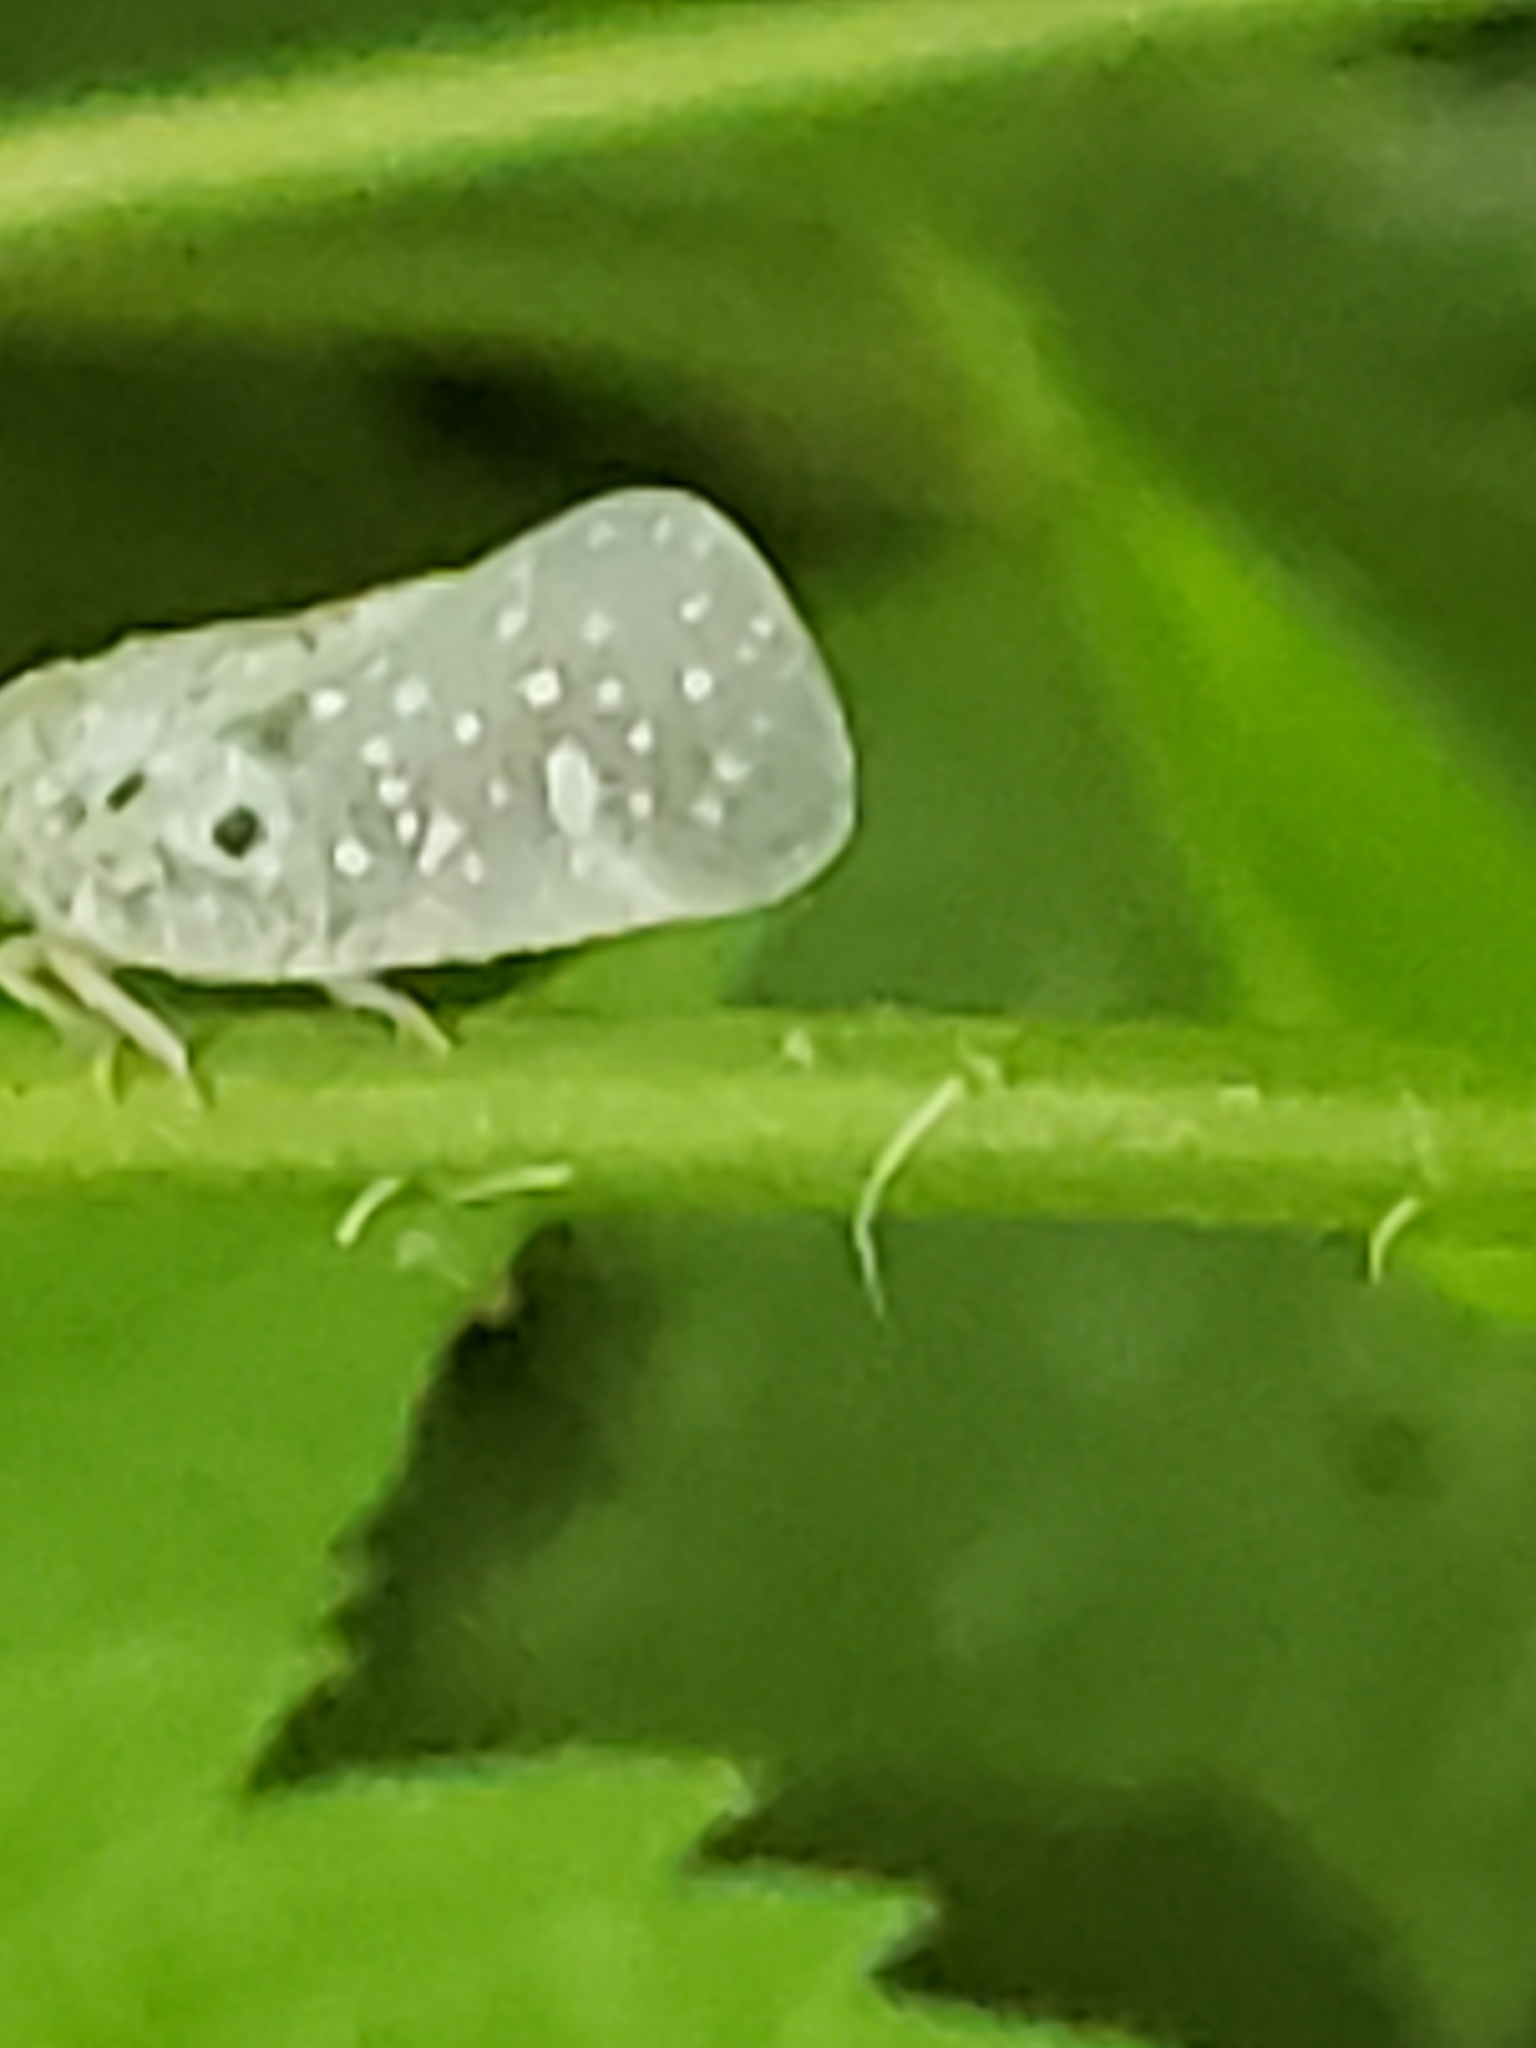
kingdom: Animalia
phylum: Arthropoda
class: Insecta
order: Hemiptera
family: Flatidae
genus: Metcalfa
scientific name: Metcalfa pruinosa
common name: Citrus flatid planthopper
